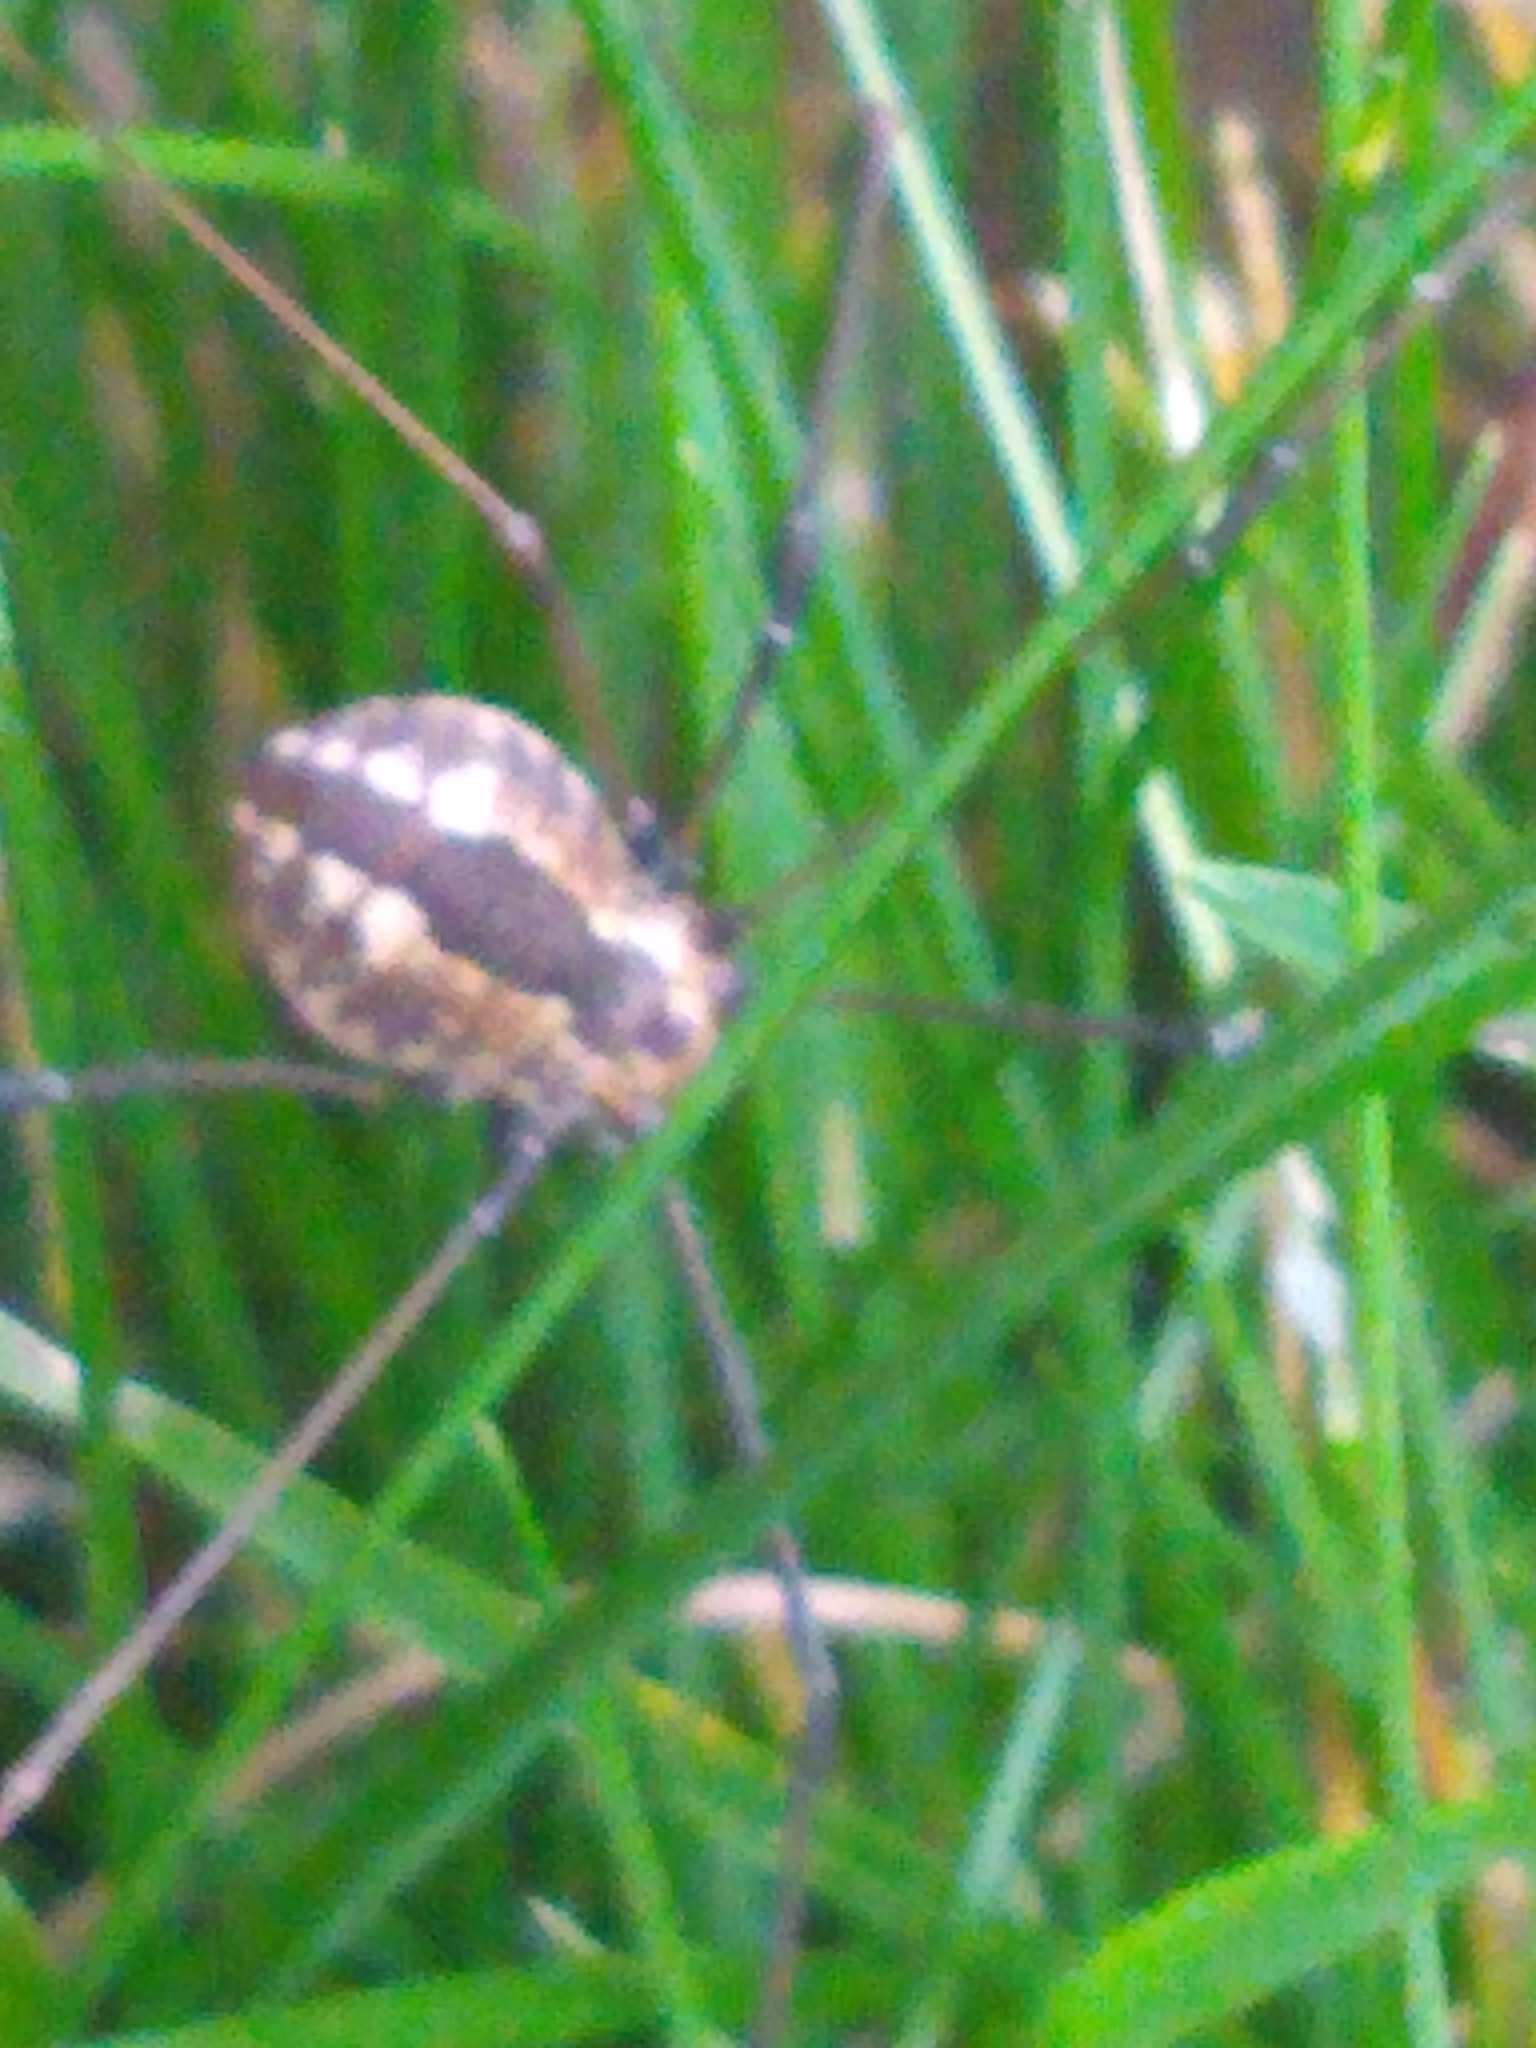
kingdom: Animalia
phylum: Arthropoda
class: Arachnida
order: Opiliones
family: Sclerosomatidae
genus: Leiobunum
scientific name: Leiobunum vittatum
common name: Eastern harvestman
